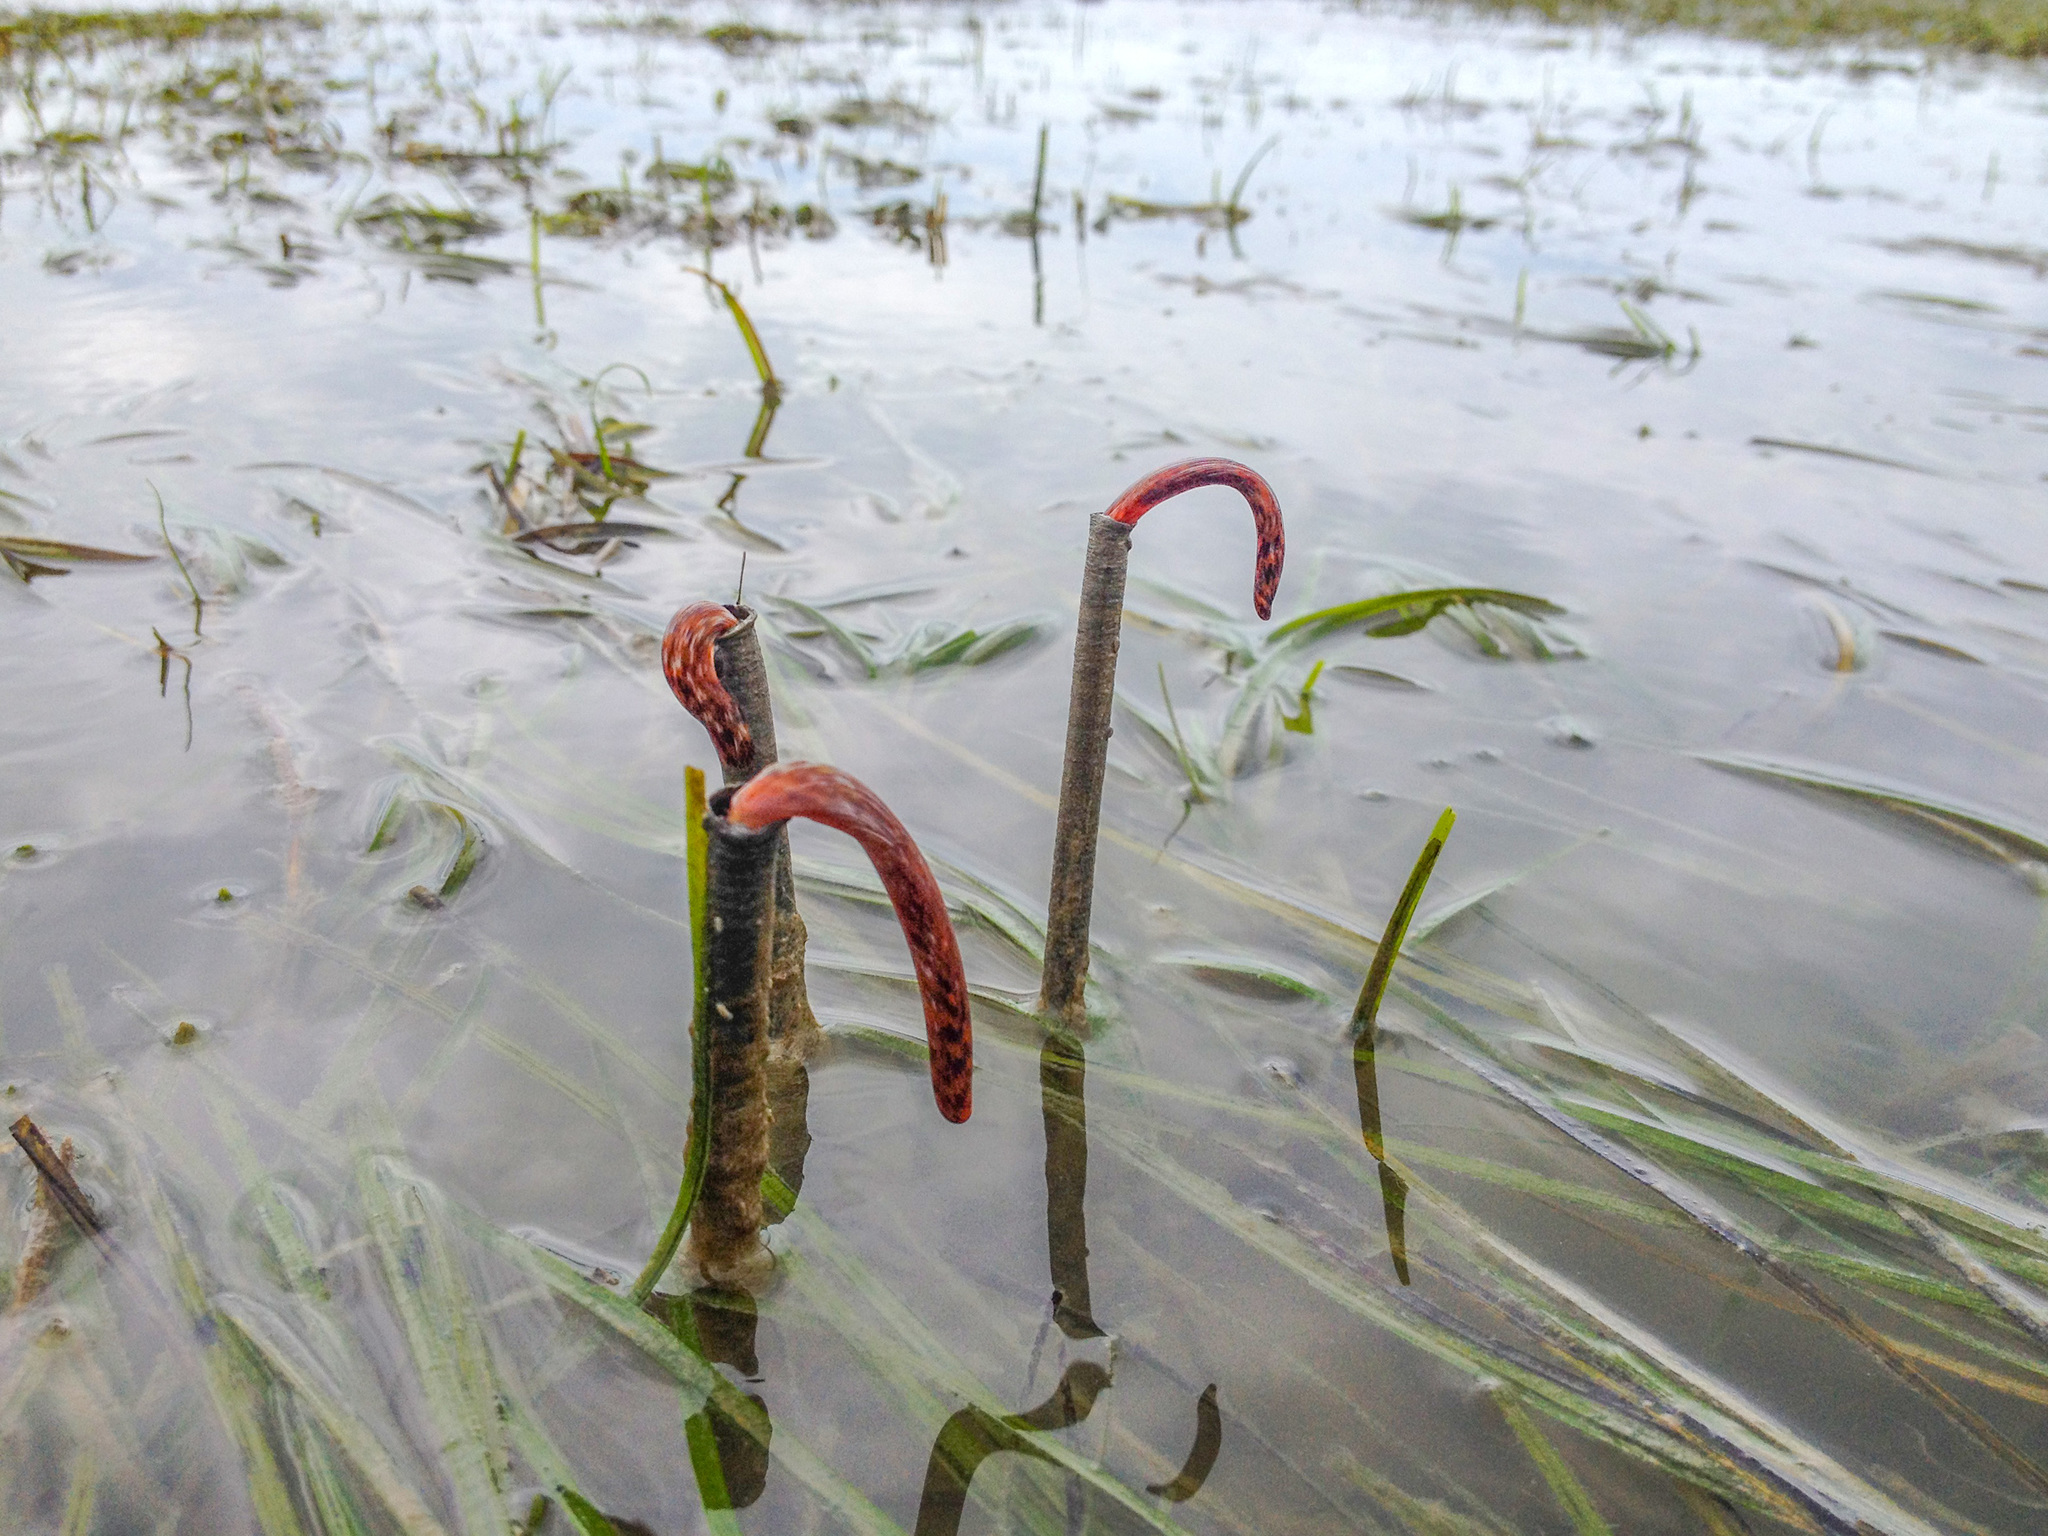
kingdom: Animalia
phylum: Annelida
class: Polychaeta
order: Sabellida
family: Sabellidae
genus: Sabella
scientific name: Sabella spallanzanii
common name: Feather duster worm
